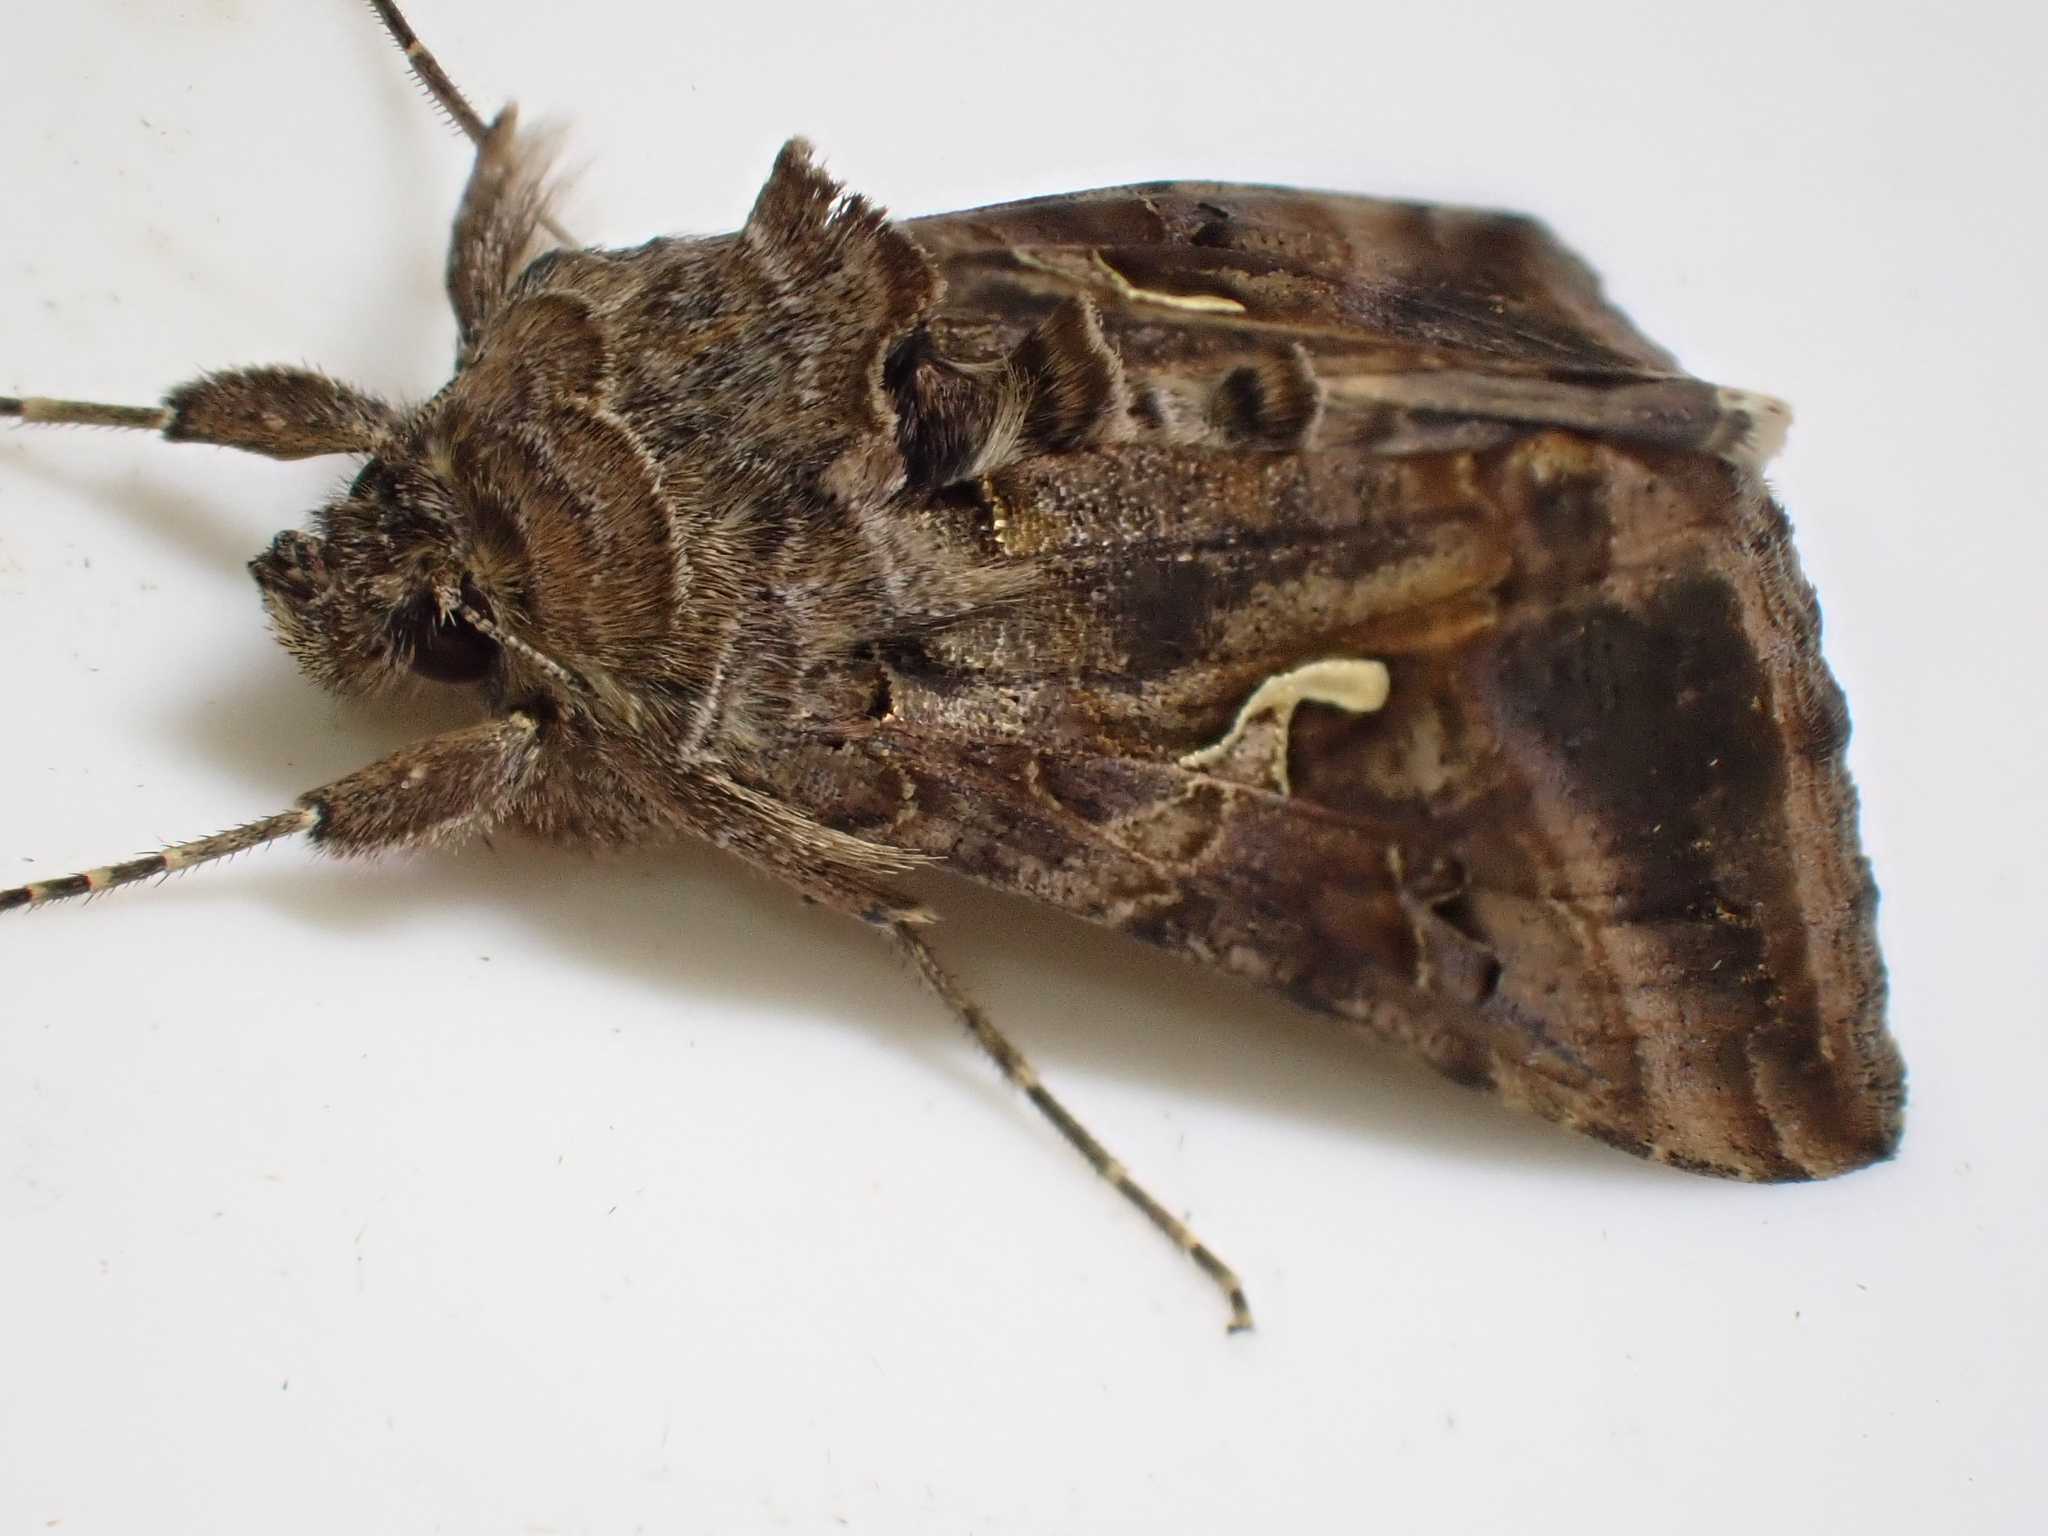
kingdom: Animalia
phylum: Arthropoda
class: Insecta
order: Lepidoptera
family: Noctuidae
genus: Autographa
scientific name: Autographa gamma
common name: Silver y
